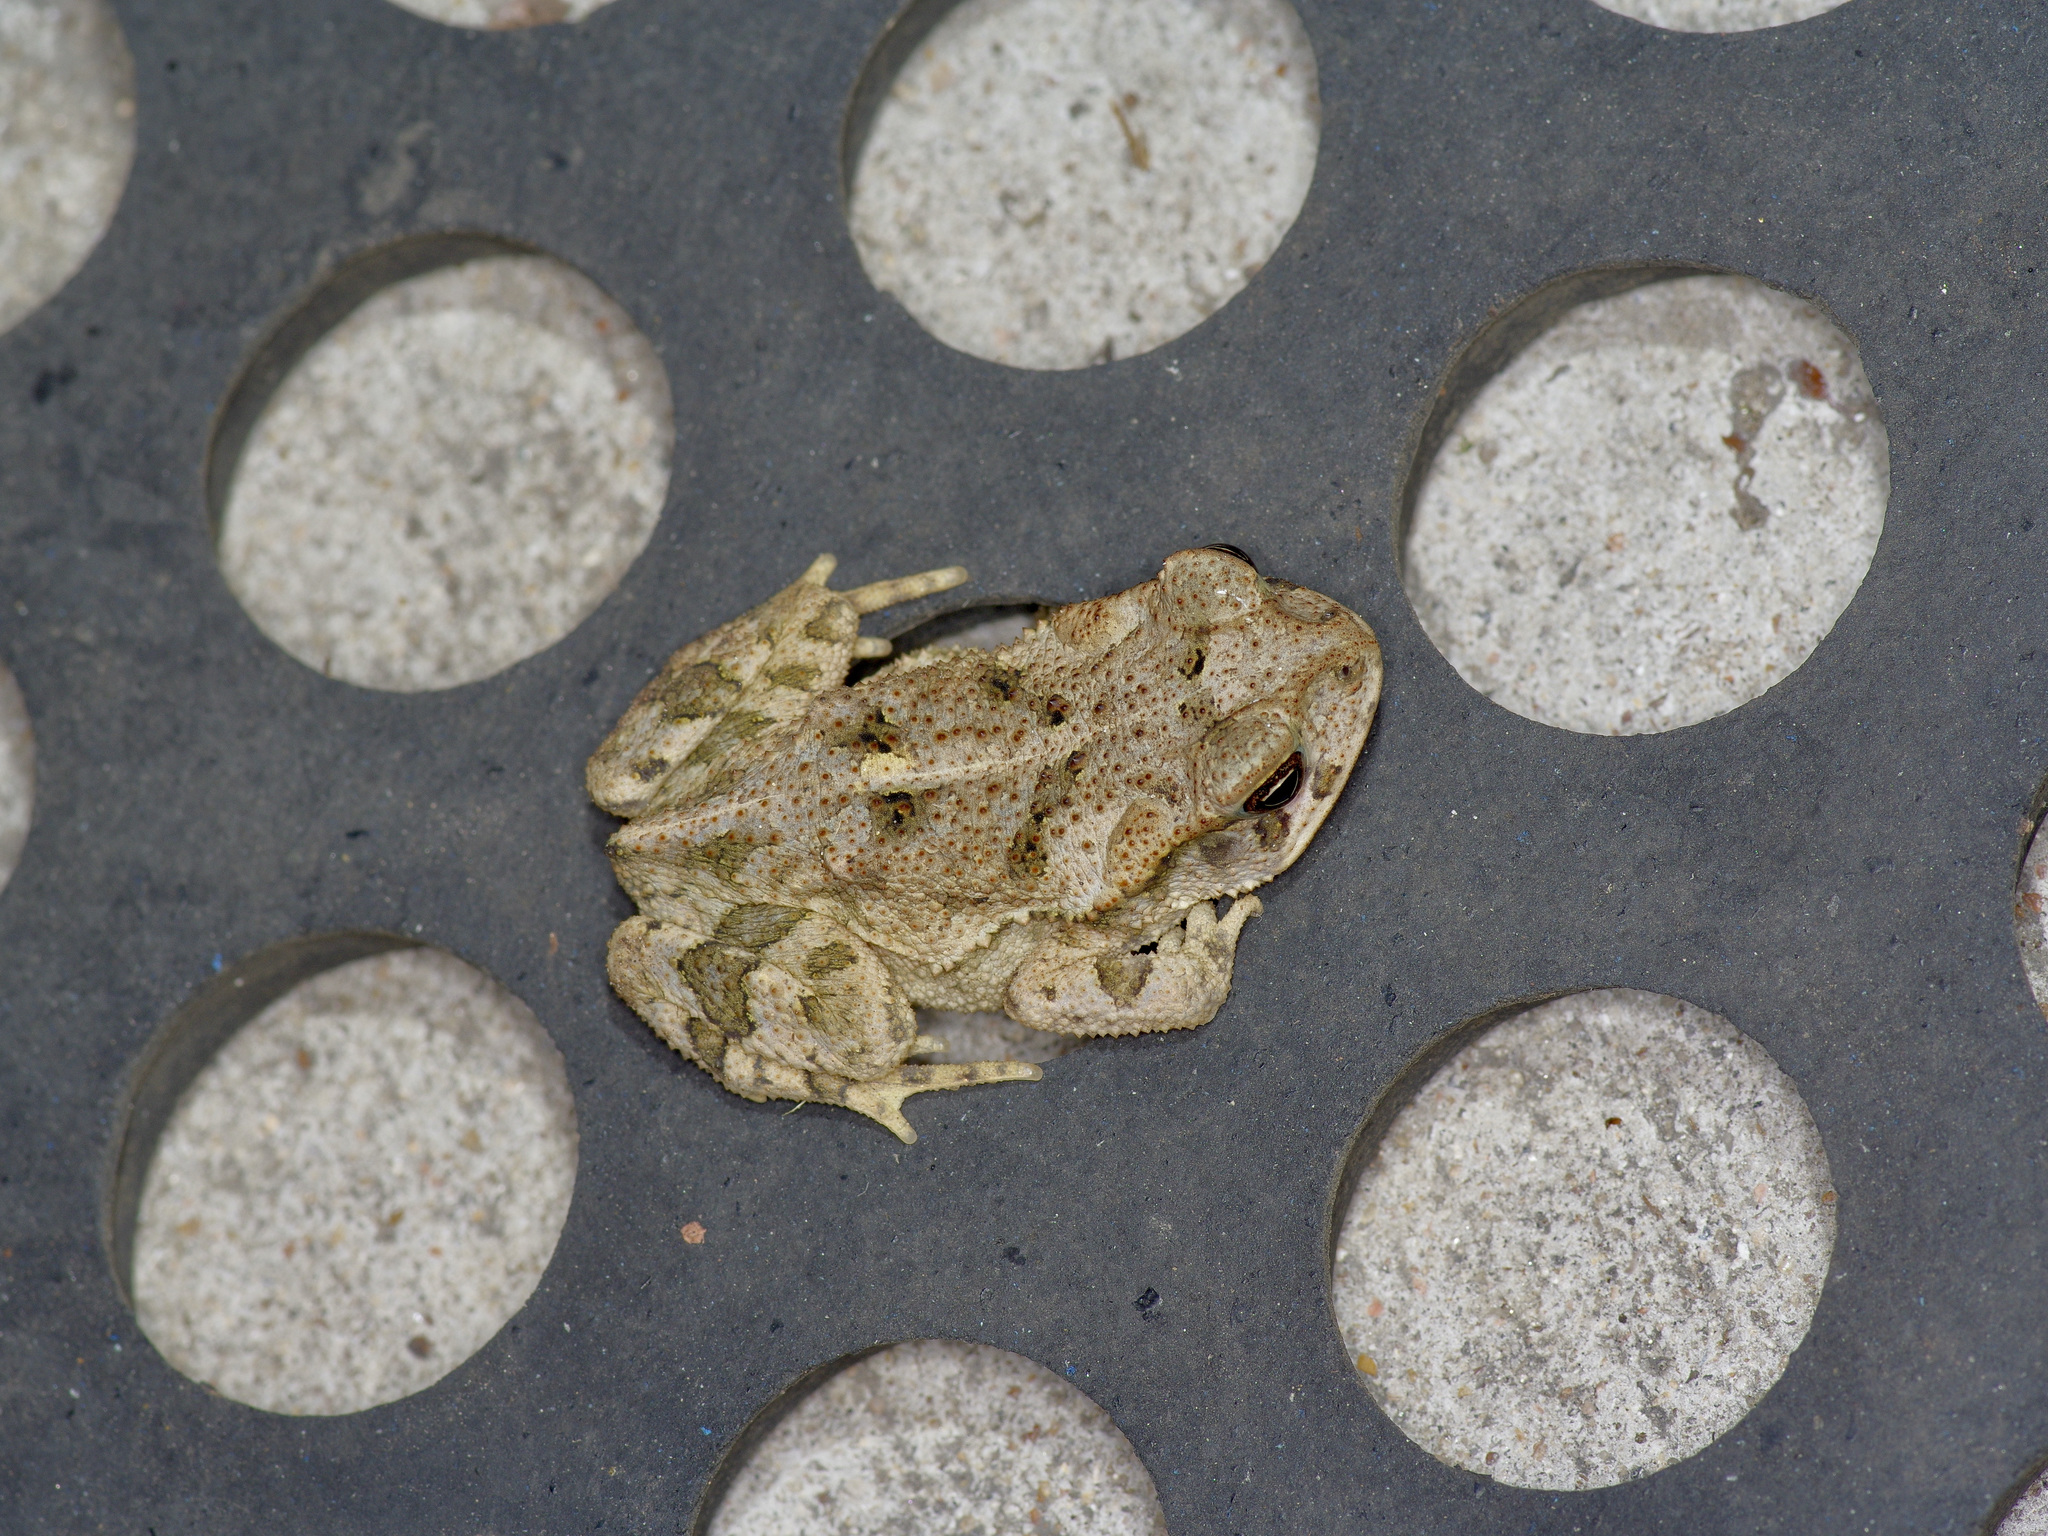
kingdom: Animalia
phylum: Chordata
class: Amphibia
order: Anura
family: Bufonidae
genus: Incilius
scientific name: Incilius nebulifer
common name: Gulf coast toad
